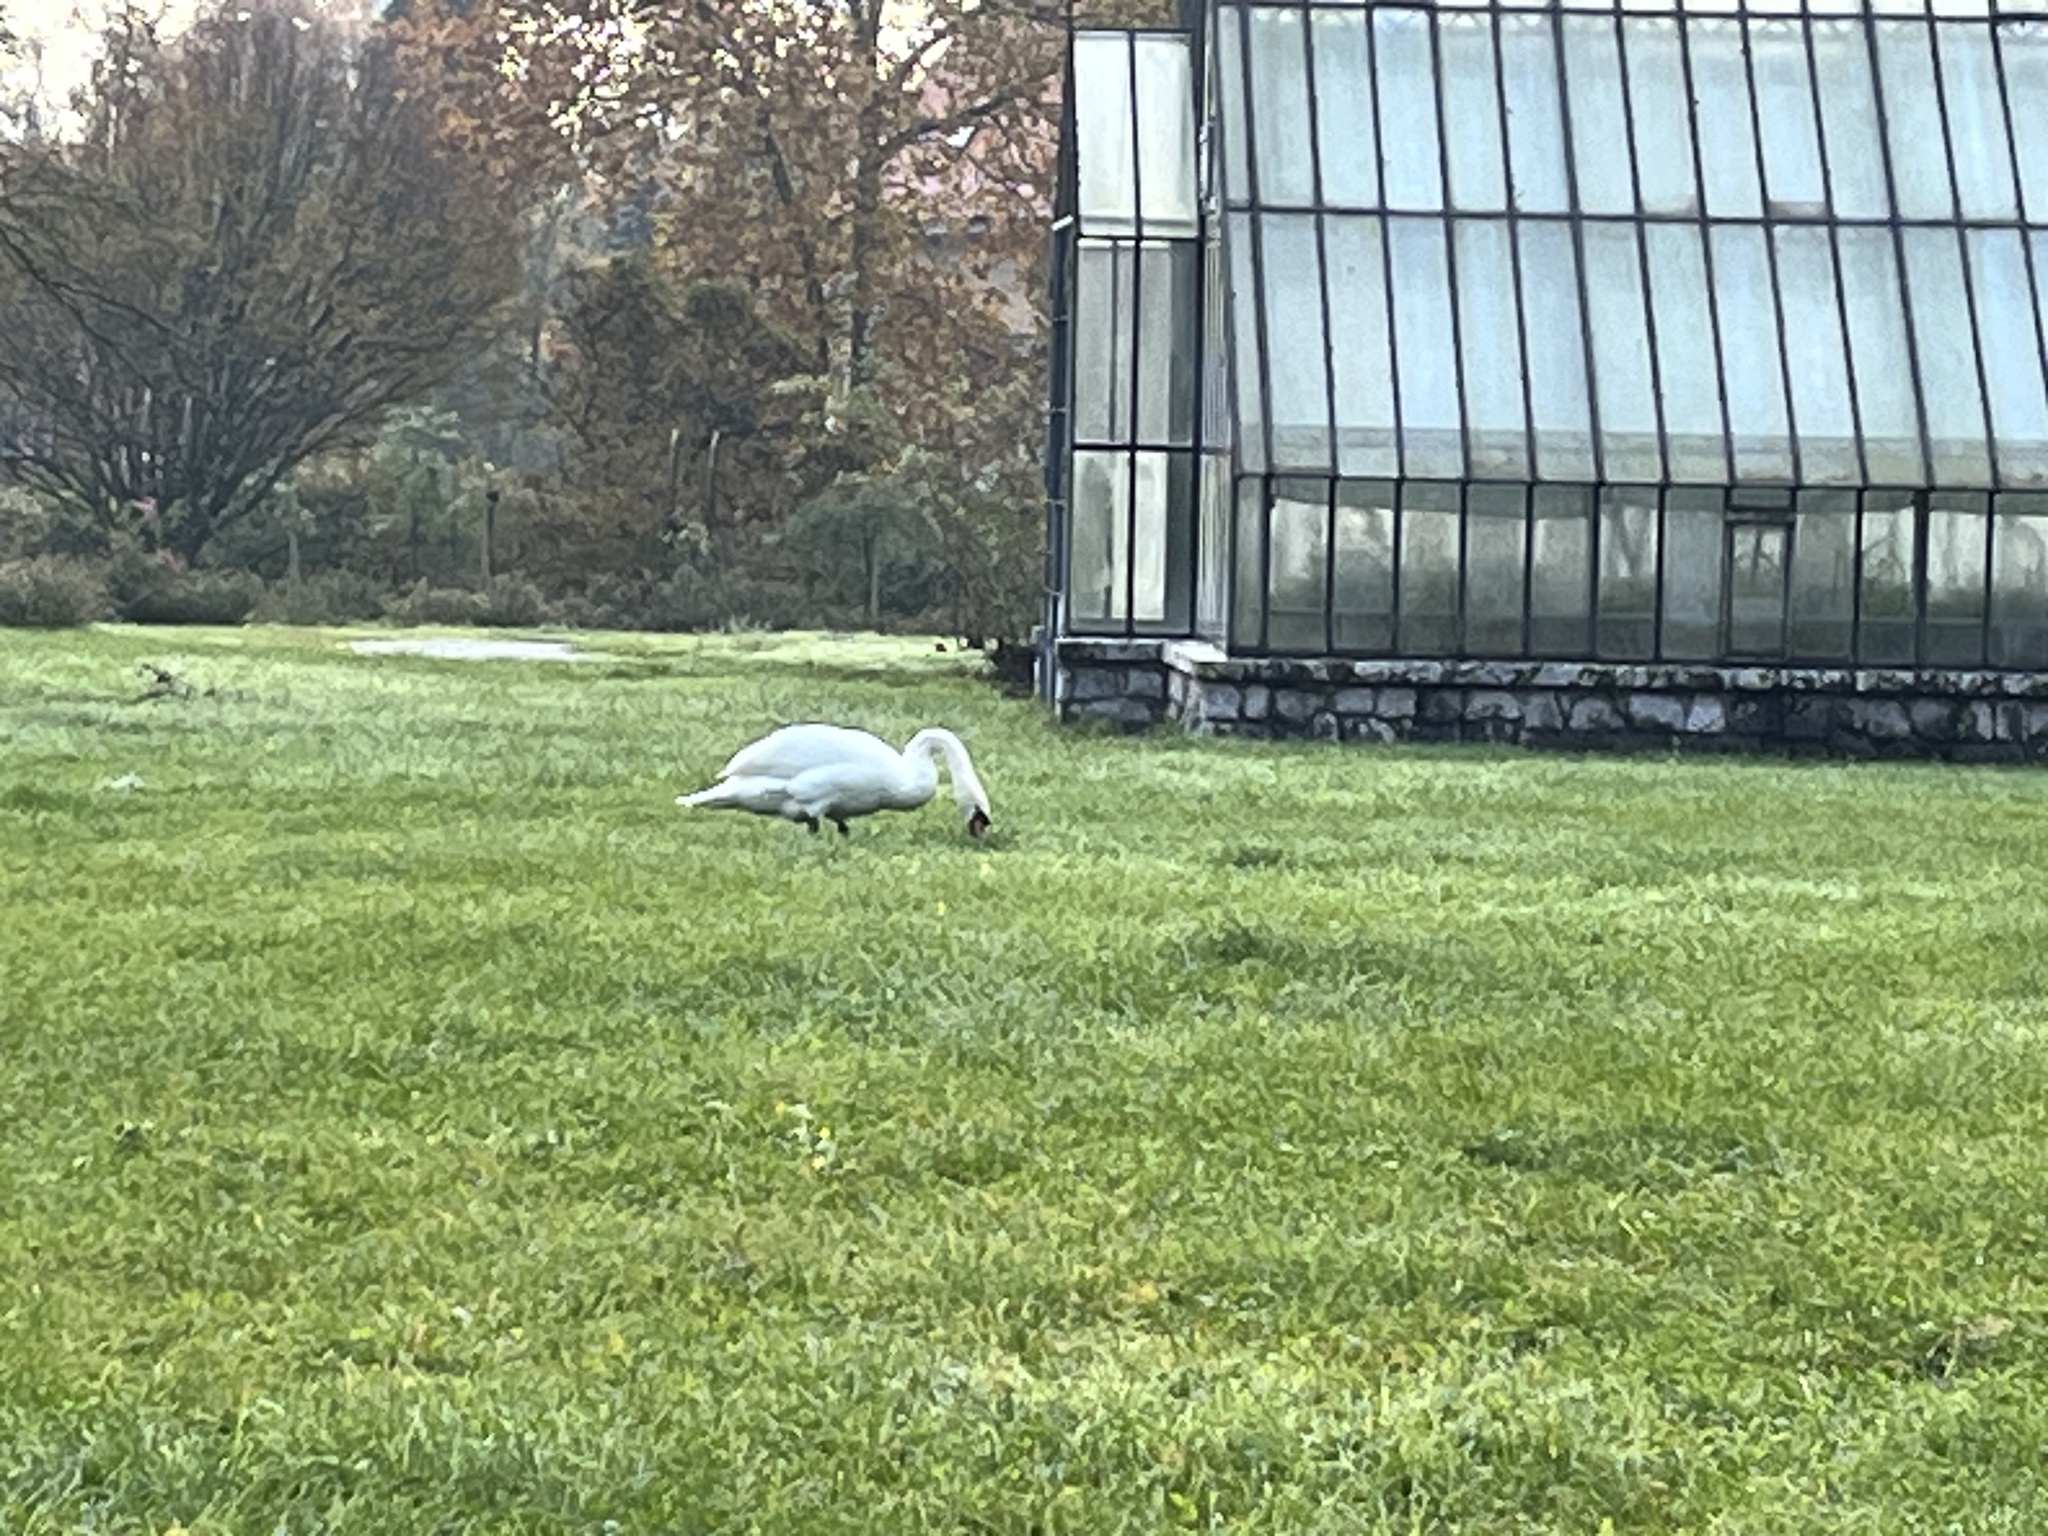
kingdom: Animalia
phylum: Chordata
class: Aves
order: Anseriformes
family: Anatidae
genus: Cygnus
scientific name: Cygnus olor
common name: Mute swan
